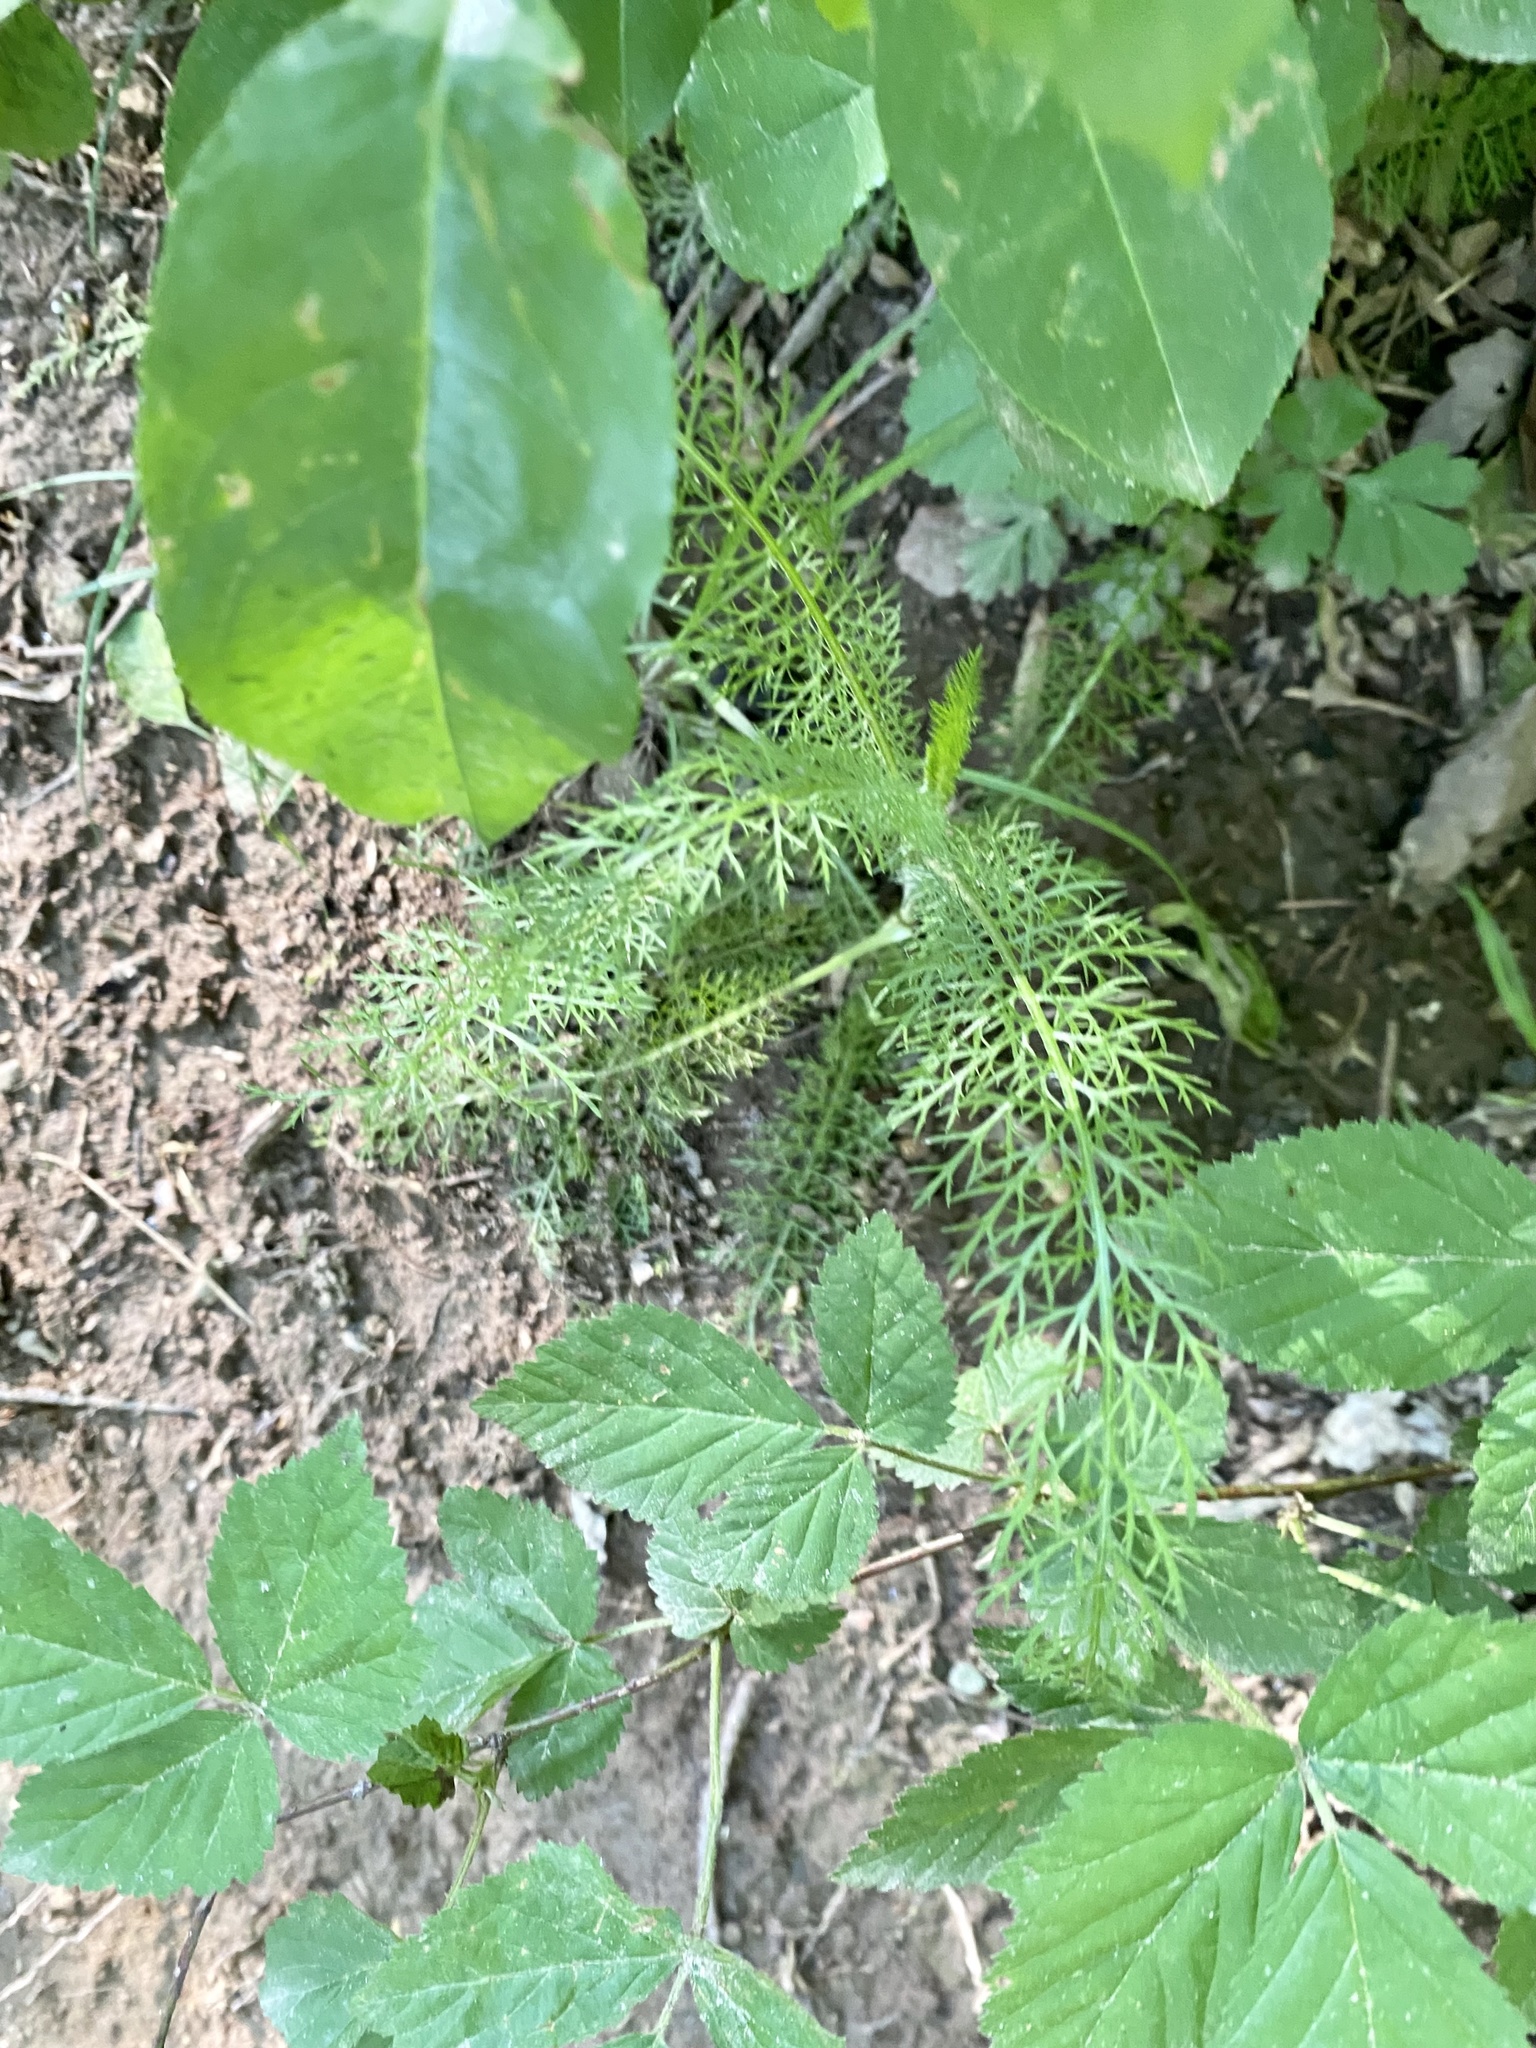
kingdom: Plantae
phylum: Tracheophyta
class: Magnoliopsida
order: Asterales
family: Asteraceae
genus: Achillea
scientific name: Achillea millefolium
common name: Yarrow
